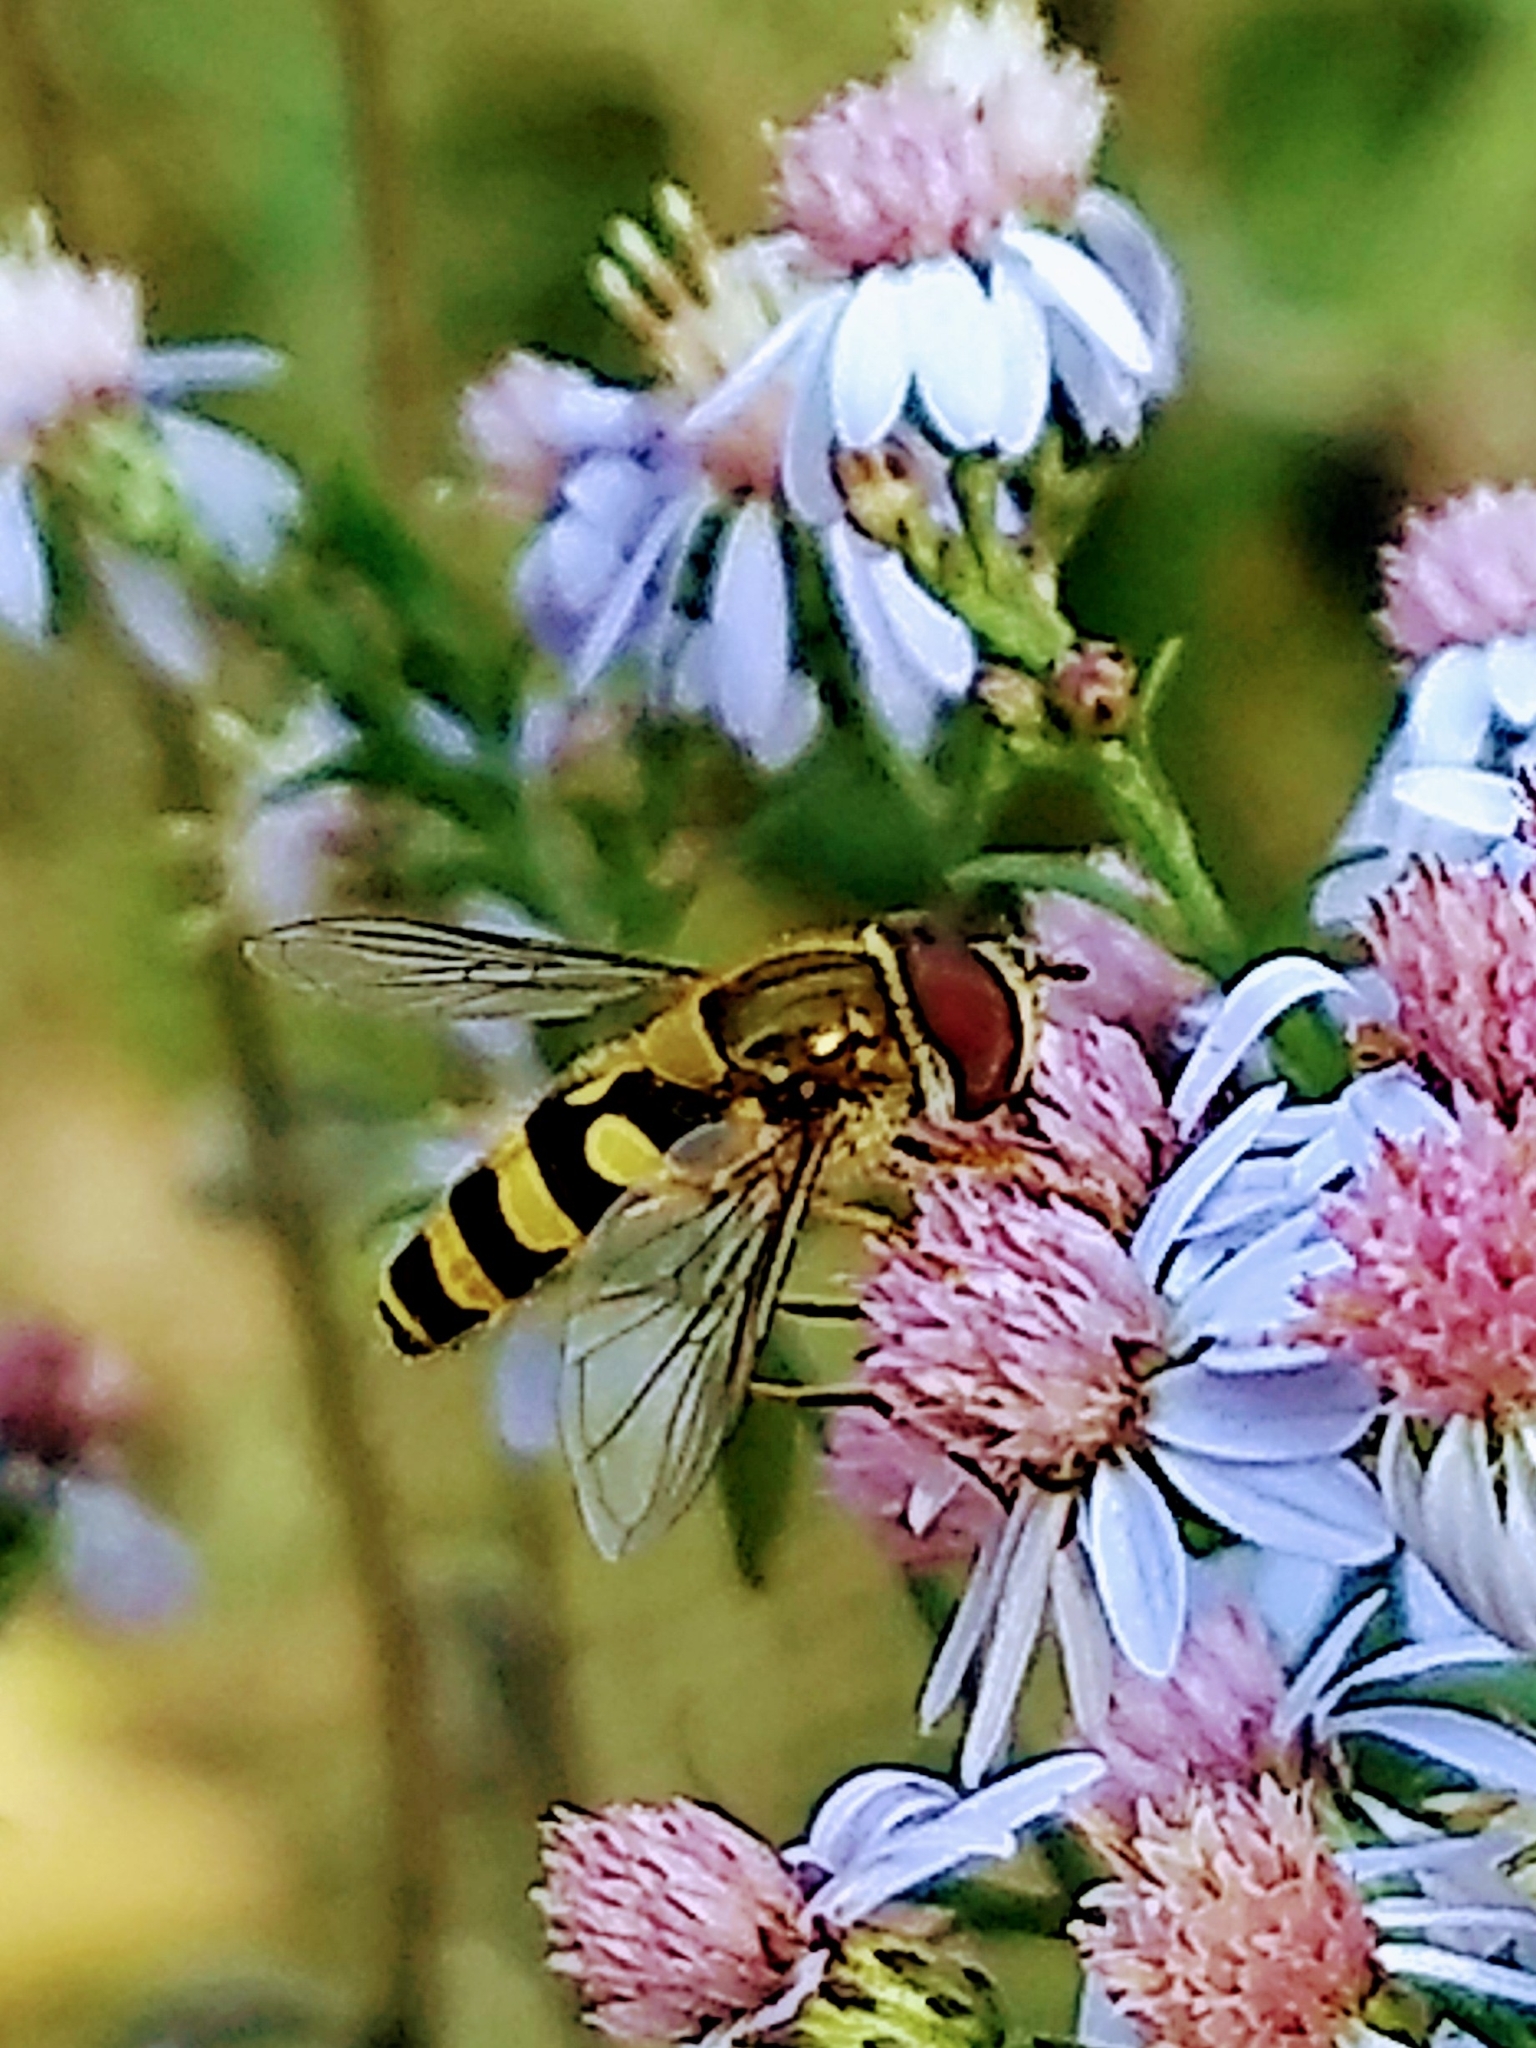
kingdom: Animalia
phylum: Arthropoda
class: Insecta
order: Diptera
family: Syrphidae
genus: Syrphus
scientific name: Syrphus
